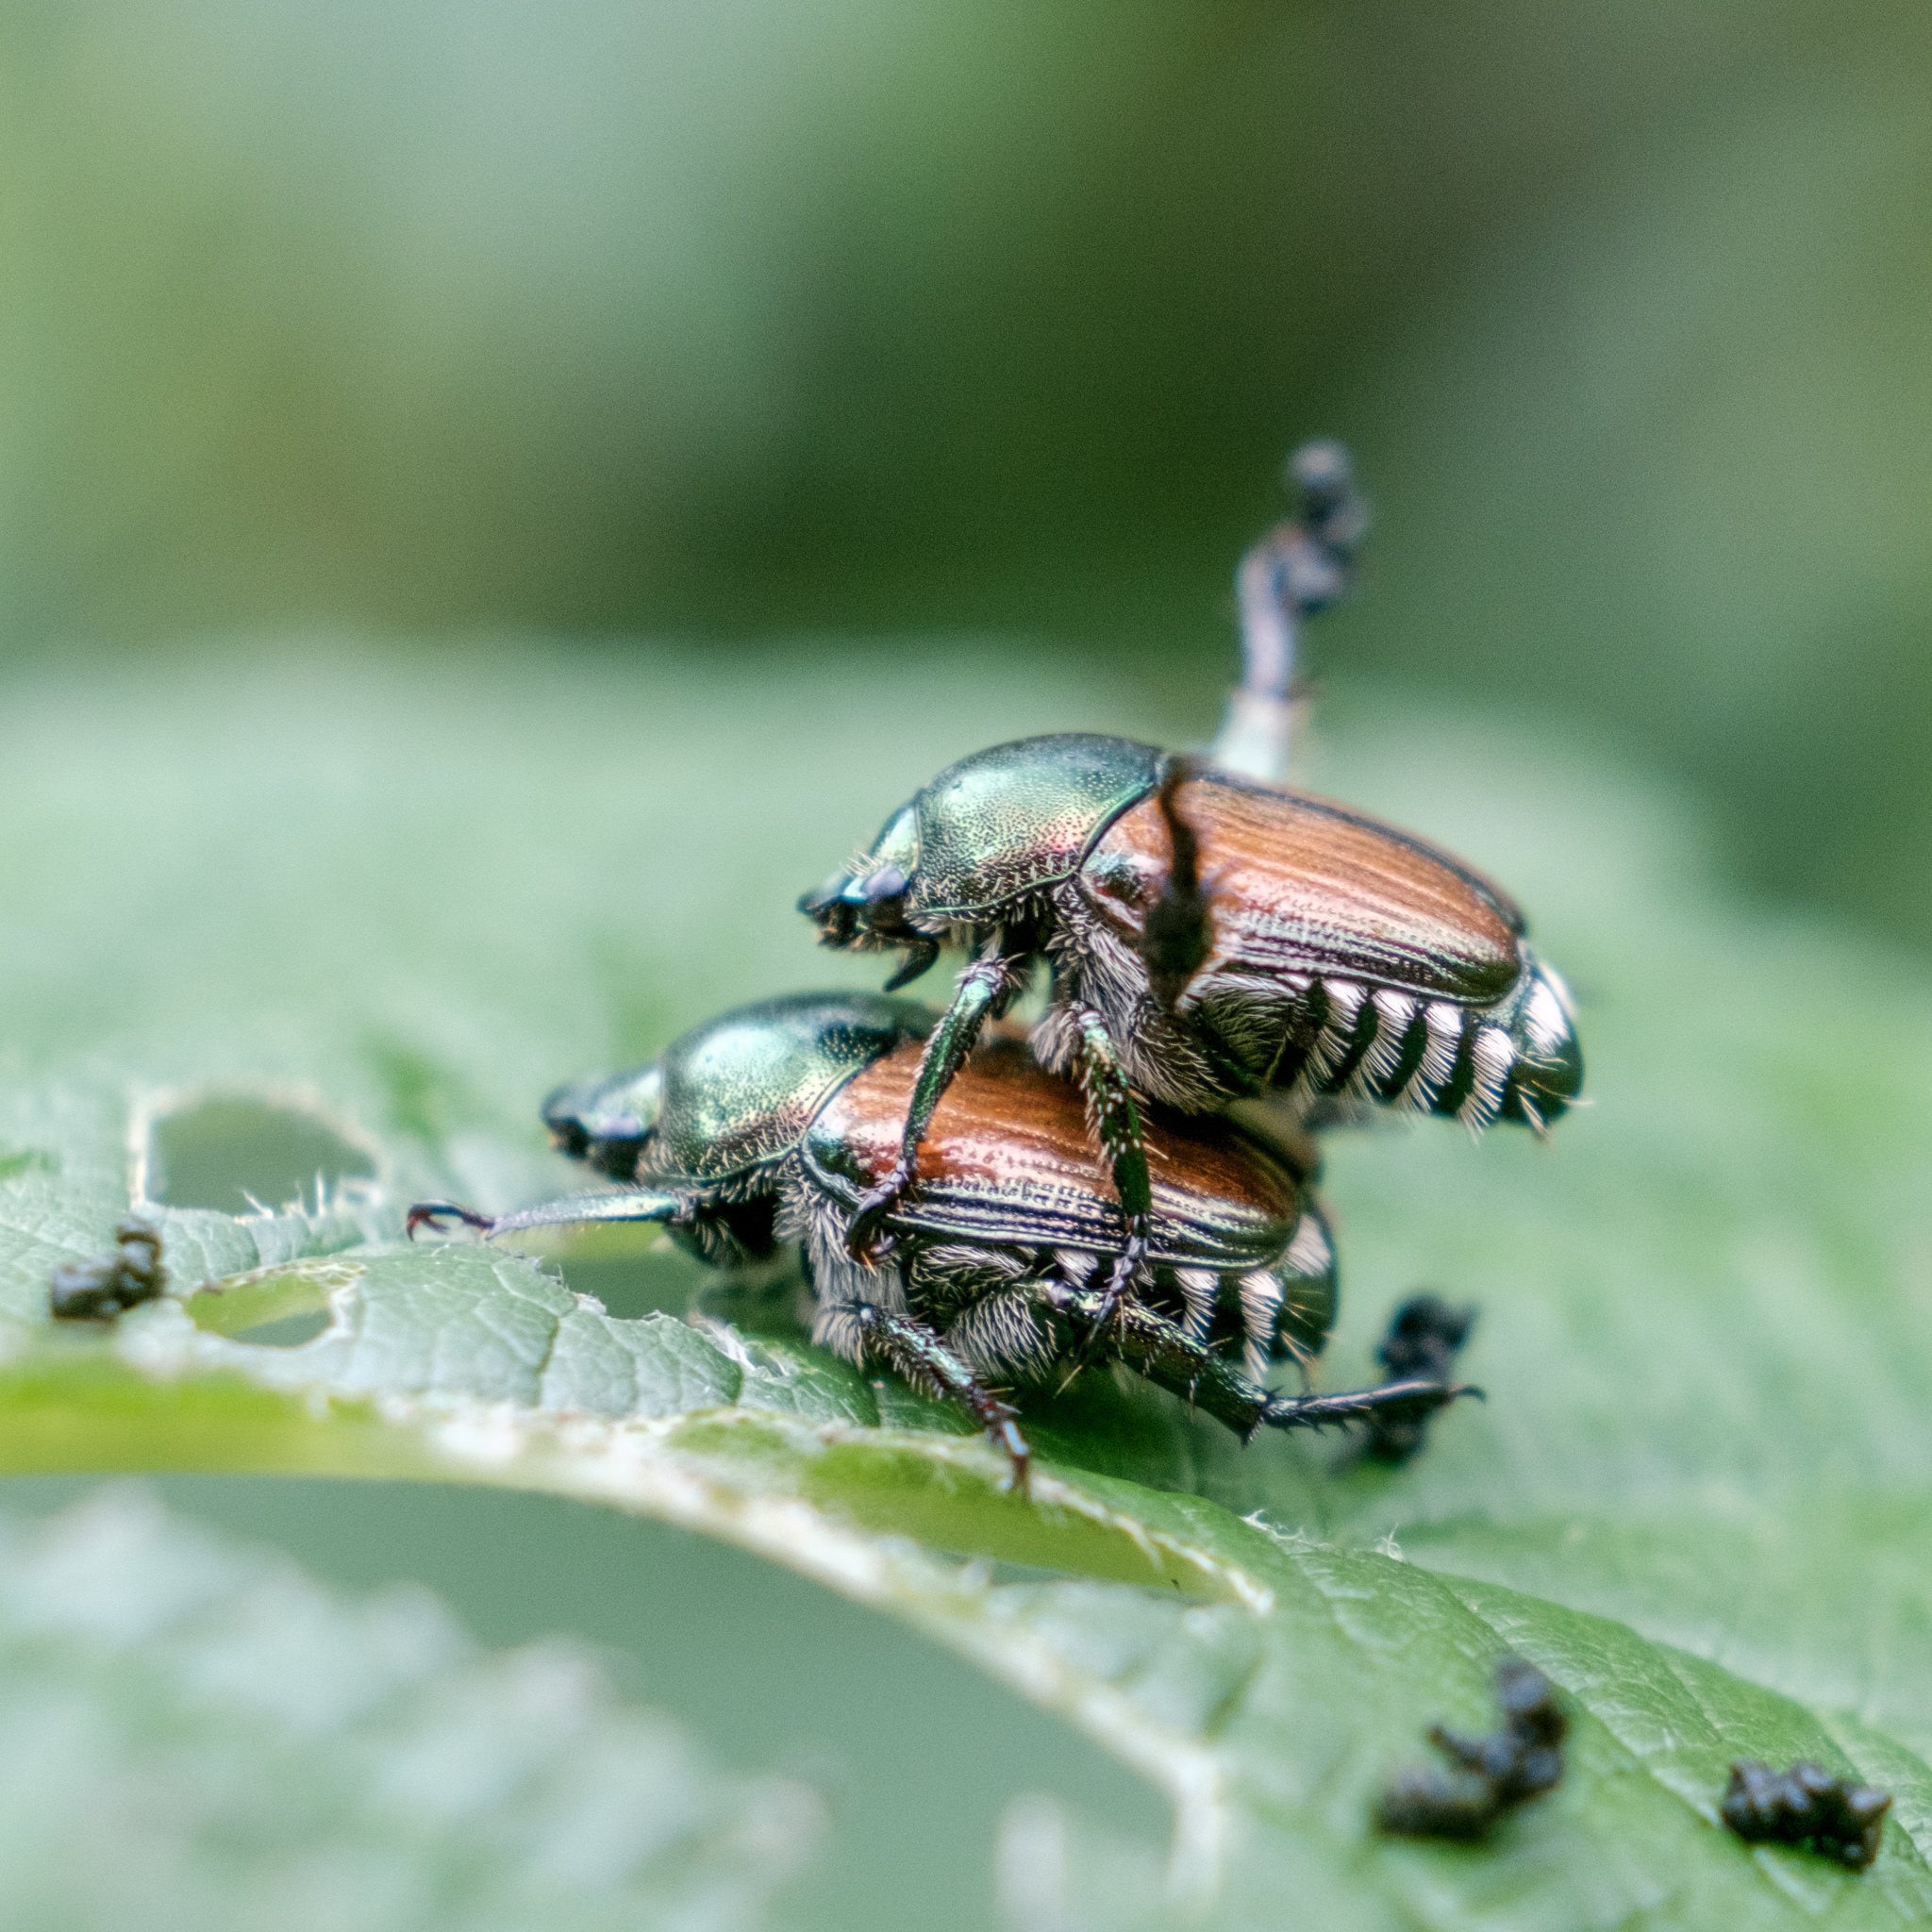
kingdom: Animalia
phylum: Arthropoda
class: Insecta
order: Coleoptera
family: Scarabaeidae
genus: Popillia
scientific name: Popillia japonica
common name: Japanese beetle
